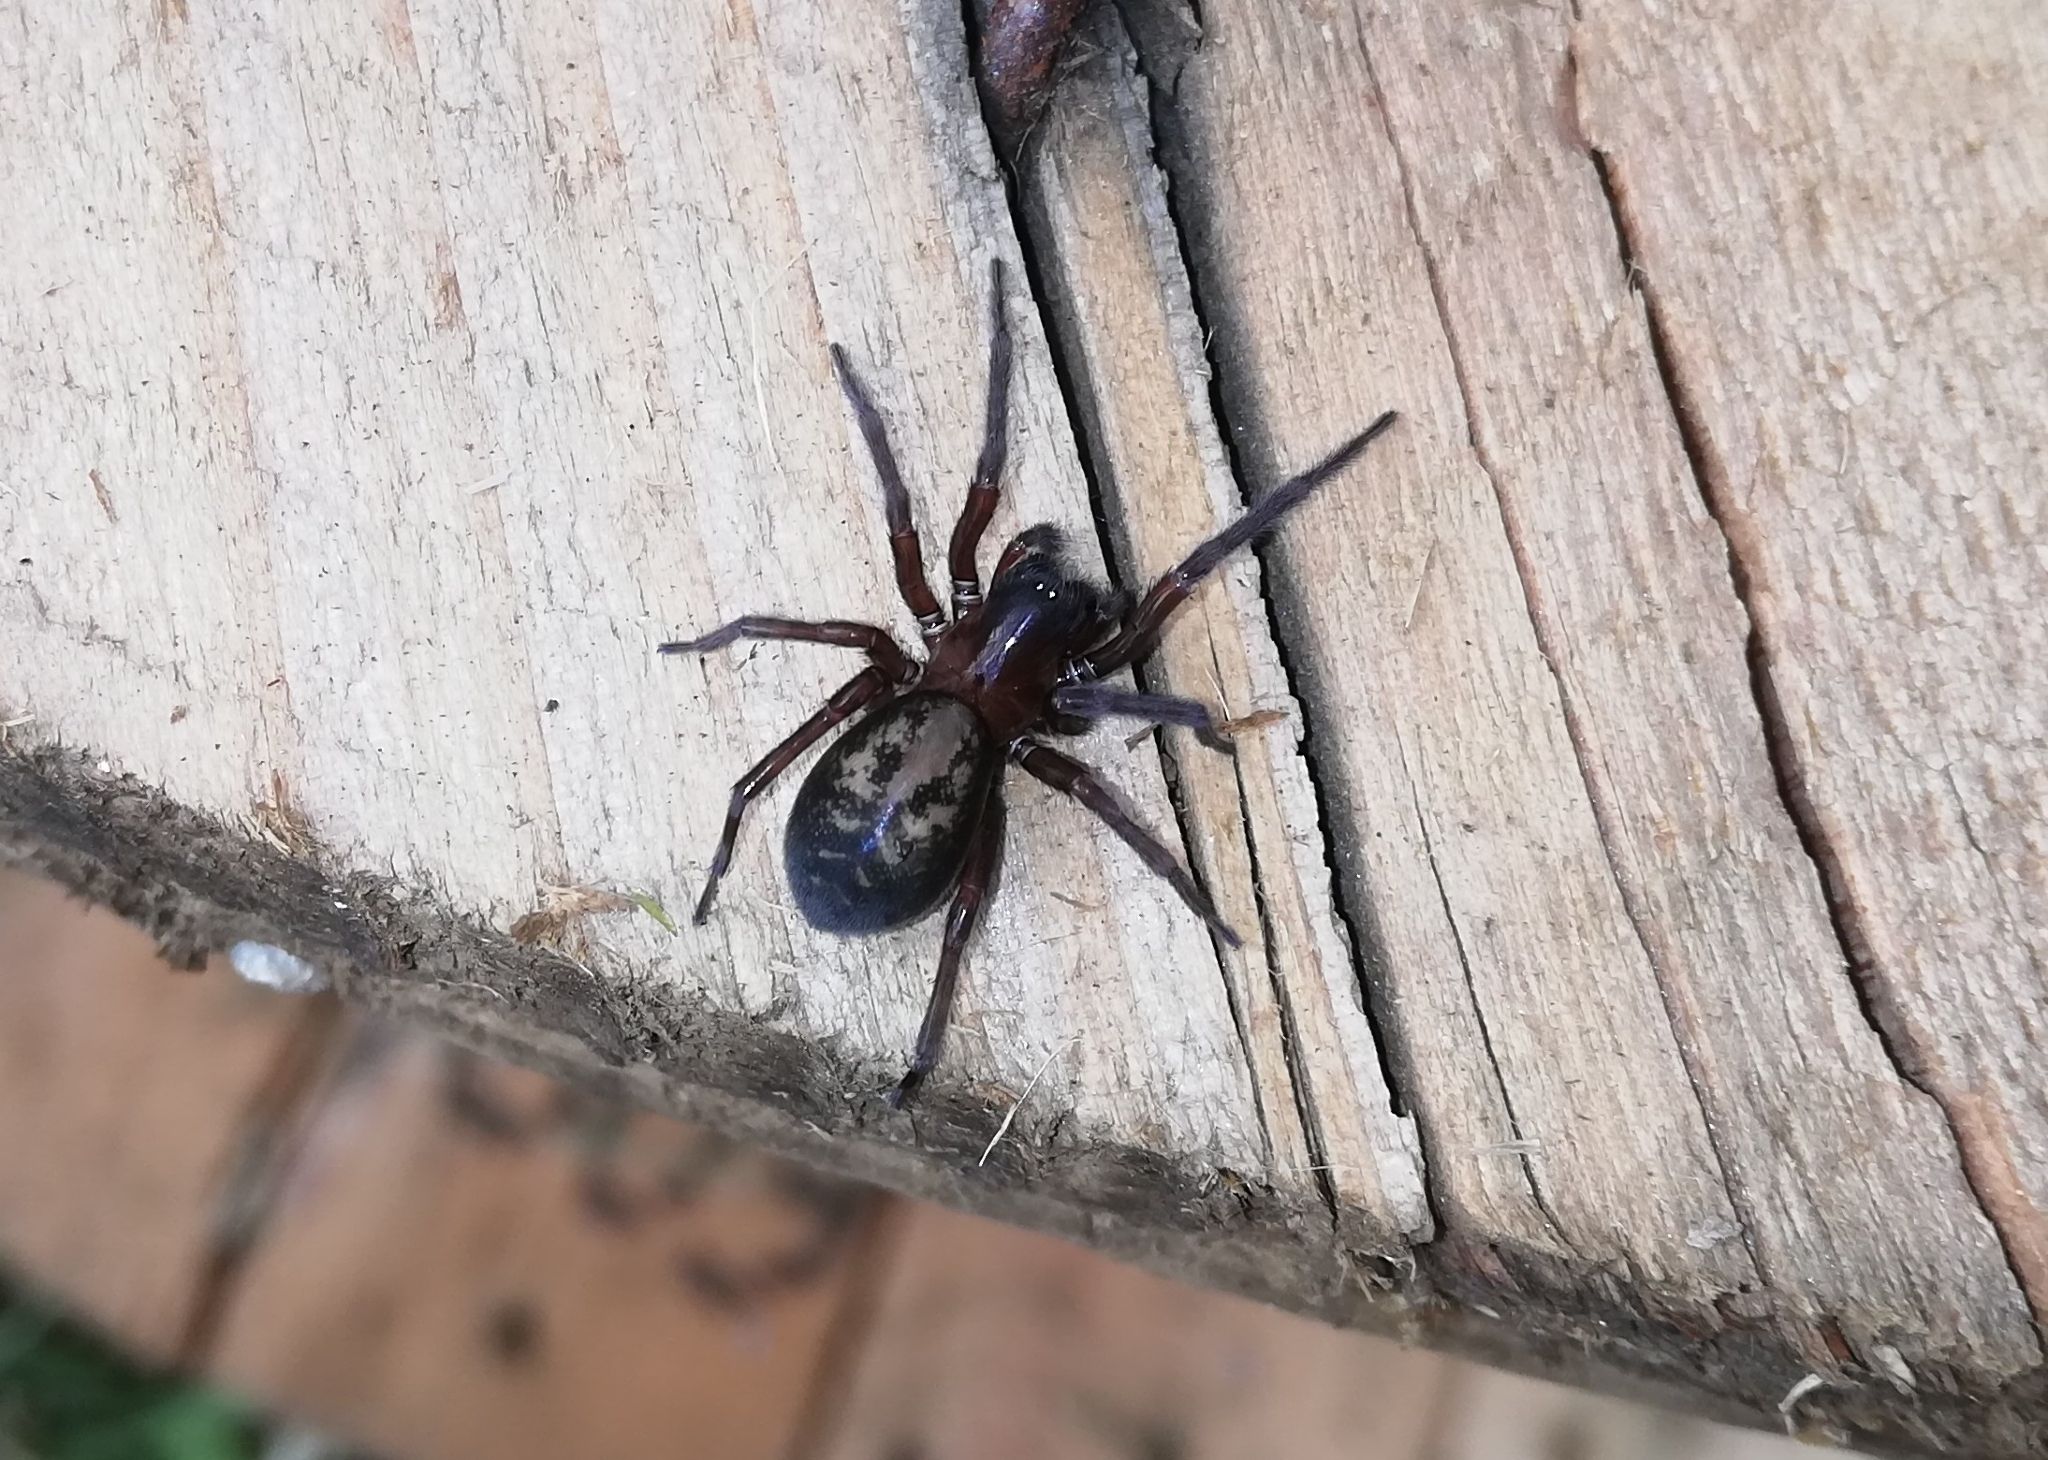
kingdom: Animalia
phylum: Arthropoda
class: Arachnida
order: Araneae
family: Amaurobiidae
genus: Amaurobius
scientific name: Amaurobius ferox
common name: Black laceweaver
